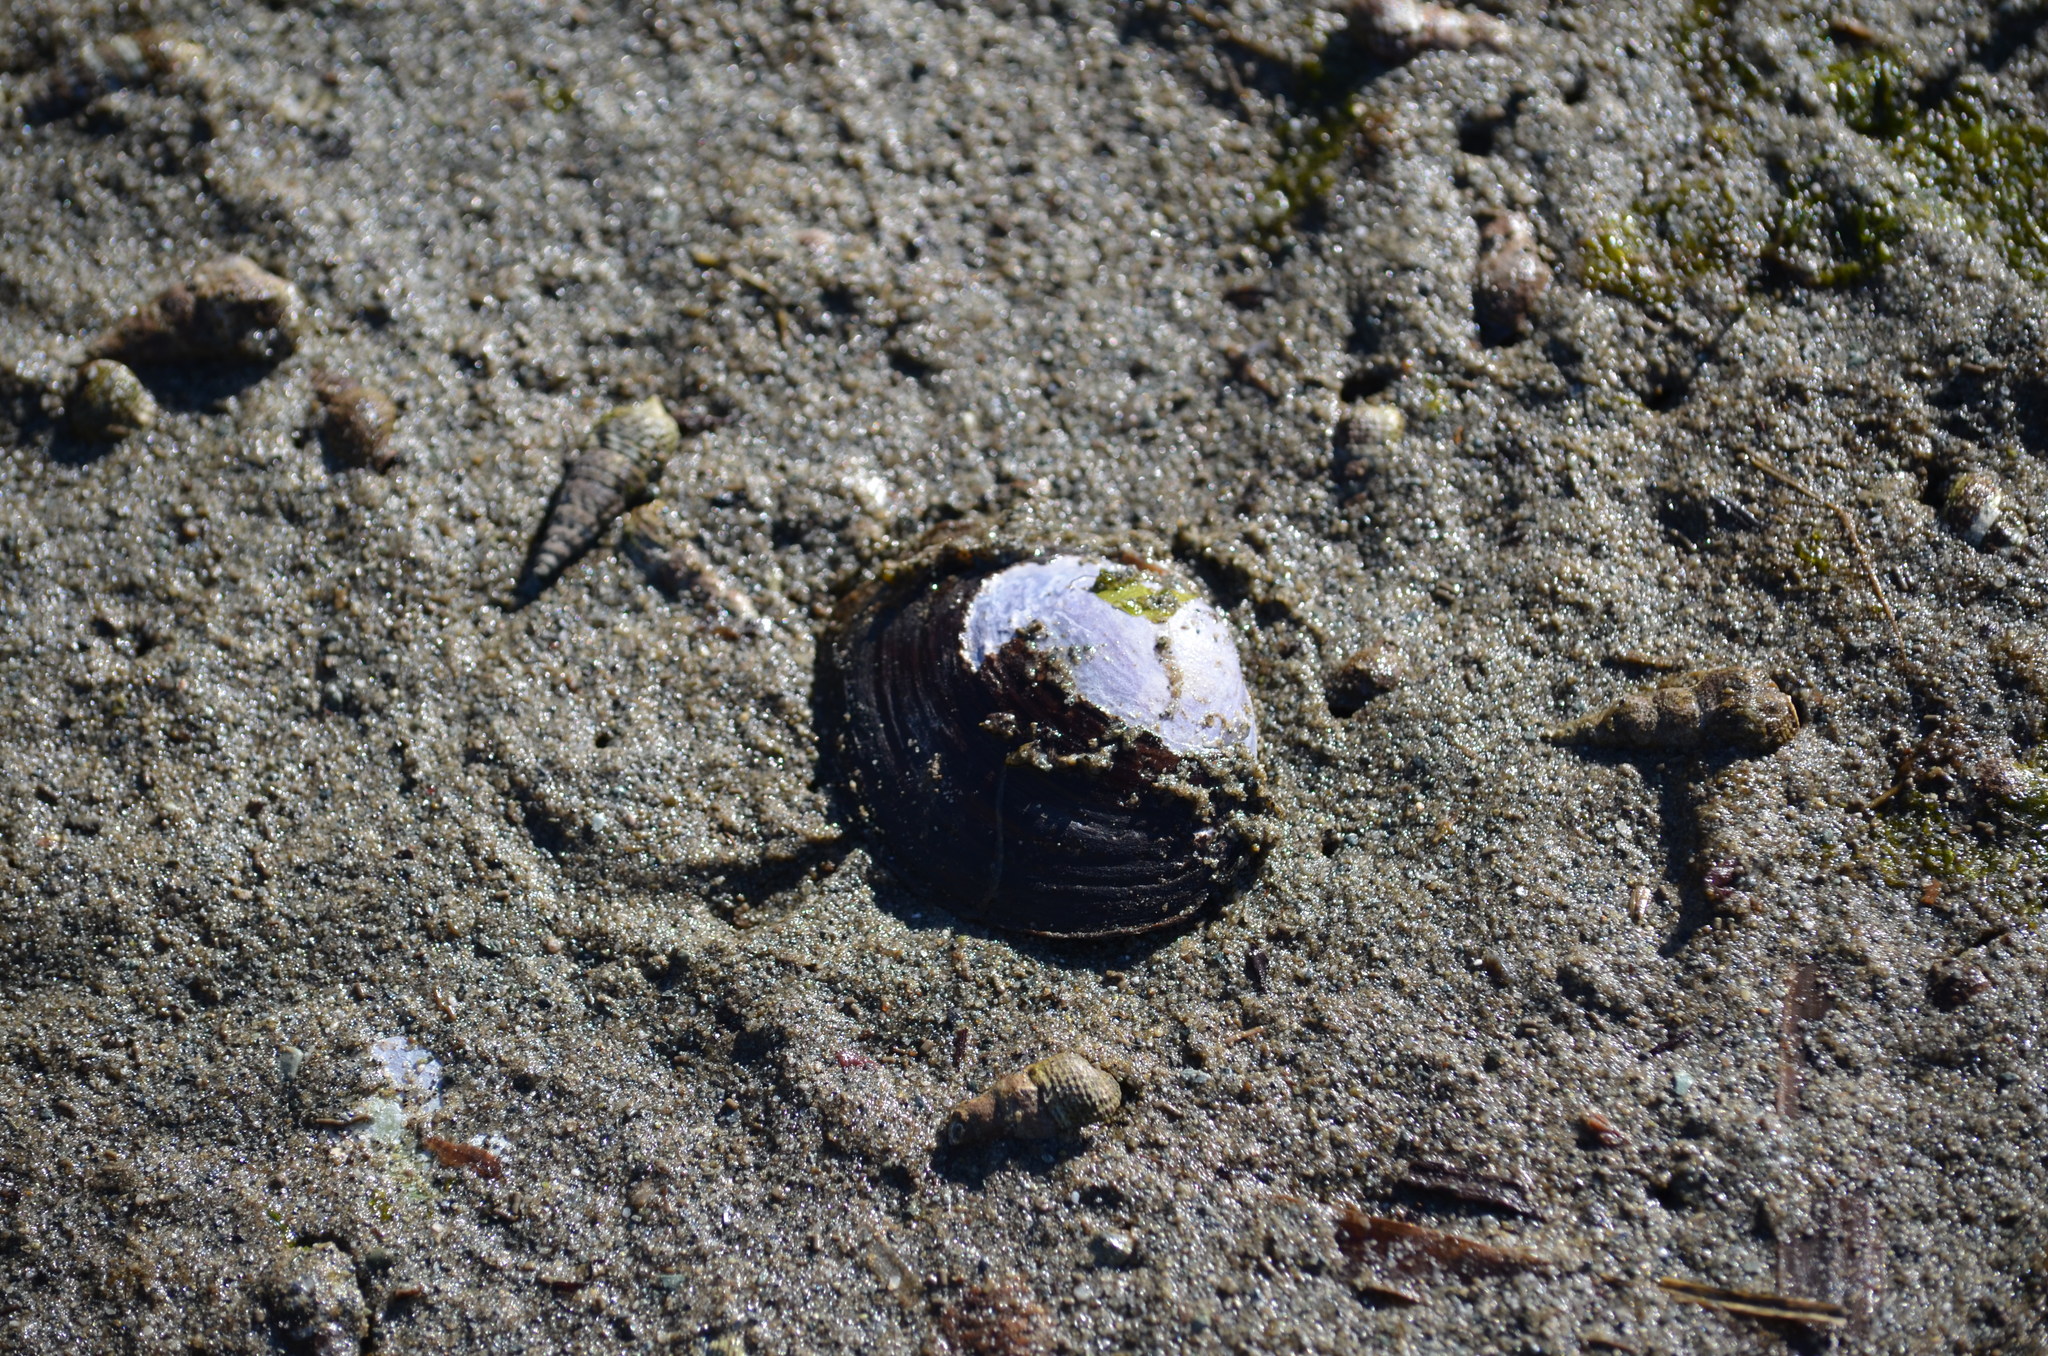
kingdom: Animalia
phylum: Mollusca
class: Bivalvia
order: Cardiida
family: Psammobiidae
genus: Nuttallia
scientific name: Nuttallia obscurata
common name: Purple mahogany-clam
